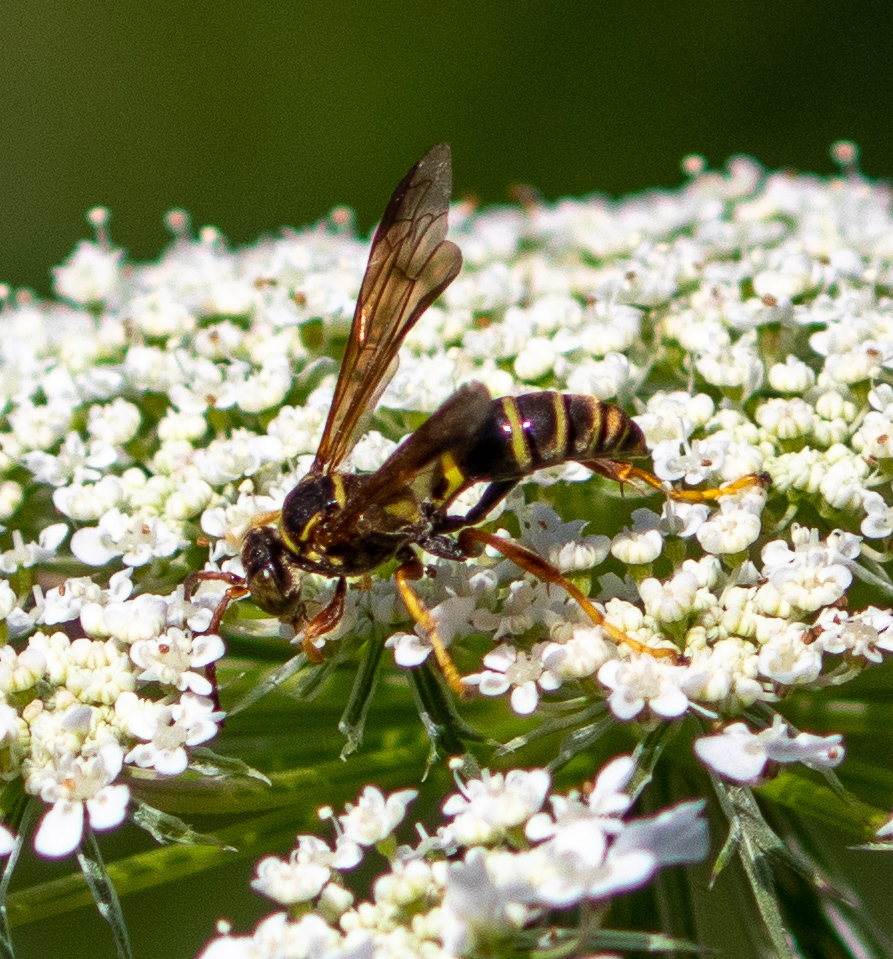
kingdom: Animalia
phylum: Arthropoda
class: Insecta
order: Hymenoptera
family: Crabronidae
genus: Saygorytes
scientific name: Saygorytes phaleratus
